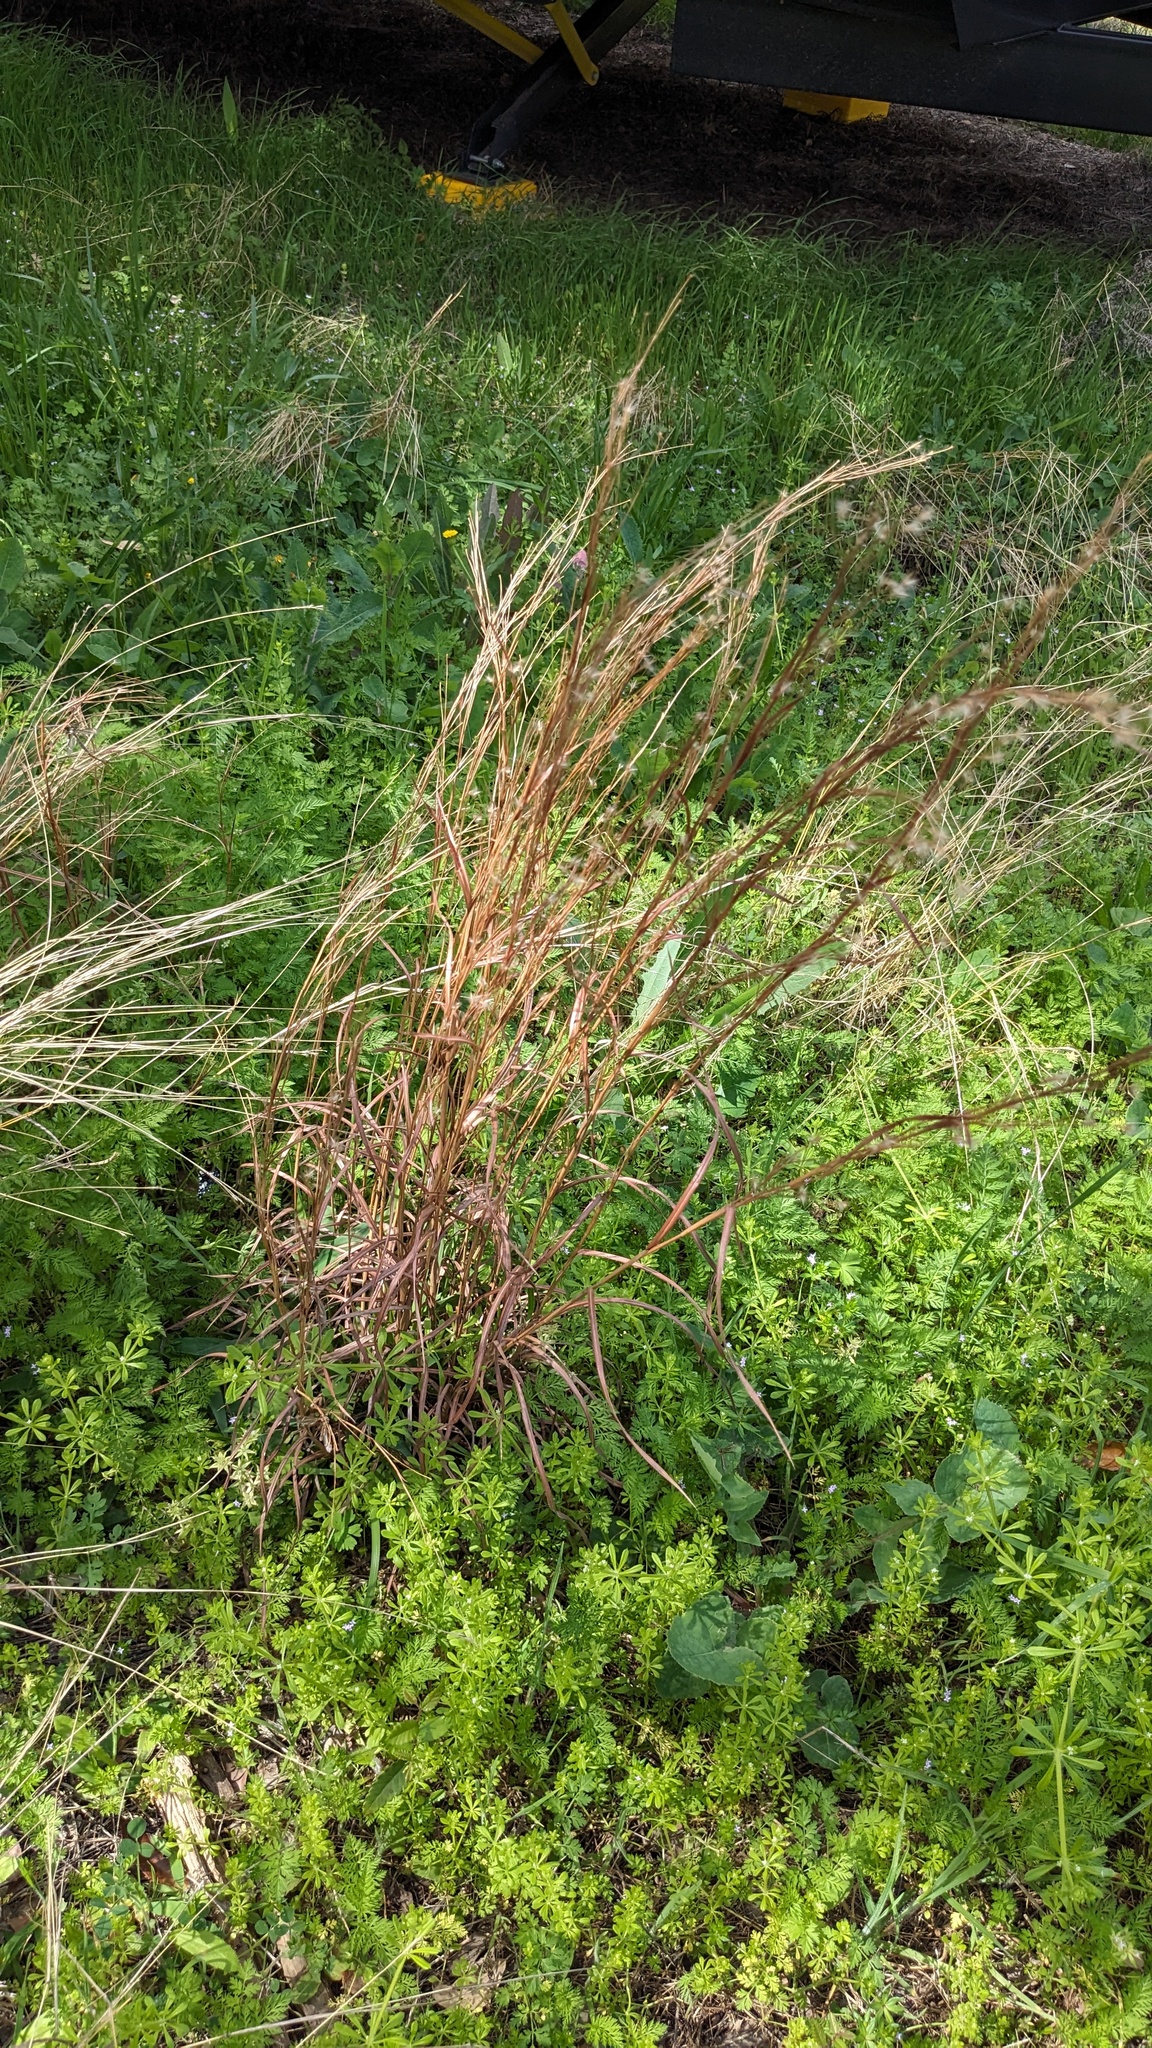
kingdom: Plantae
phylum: Tracheophyta
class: Liliopsida
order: Poales
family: Poaceae
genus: Schizachyrium
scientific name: Schizachyrium scoparium
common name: Little bluestem
